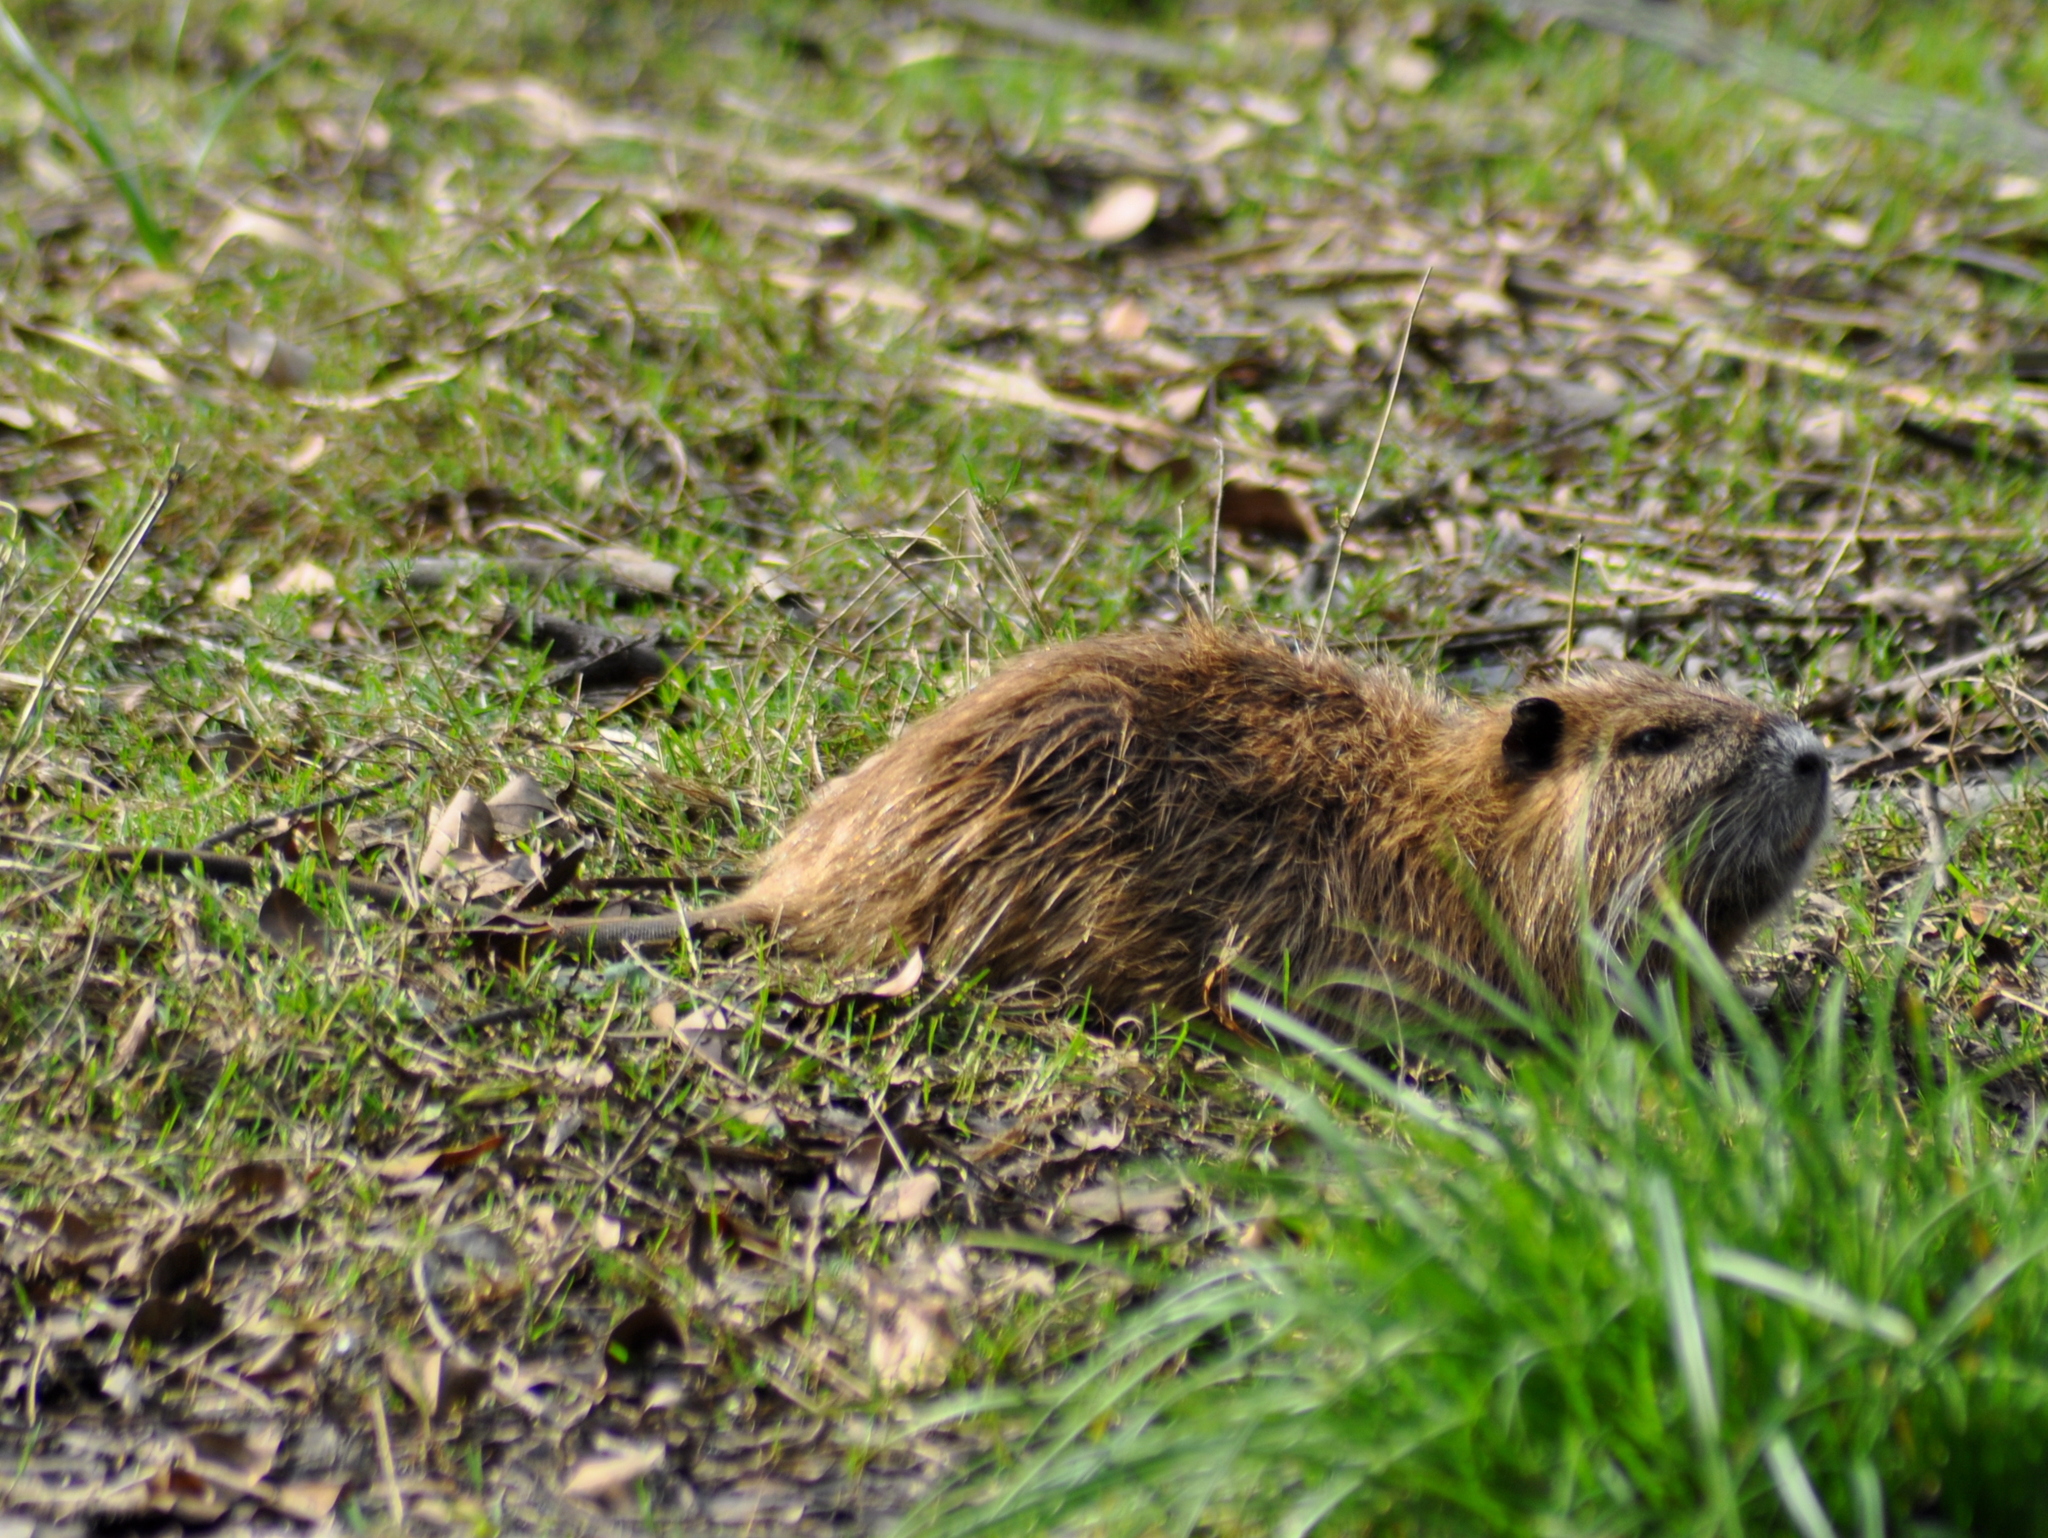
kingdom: Animalia
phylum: Chordata
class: Mammalia
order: Rodentia
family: Myocastoridae
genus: Myocastor
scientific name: Myocastor coypus
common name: Coypu
